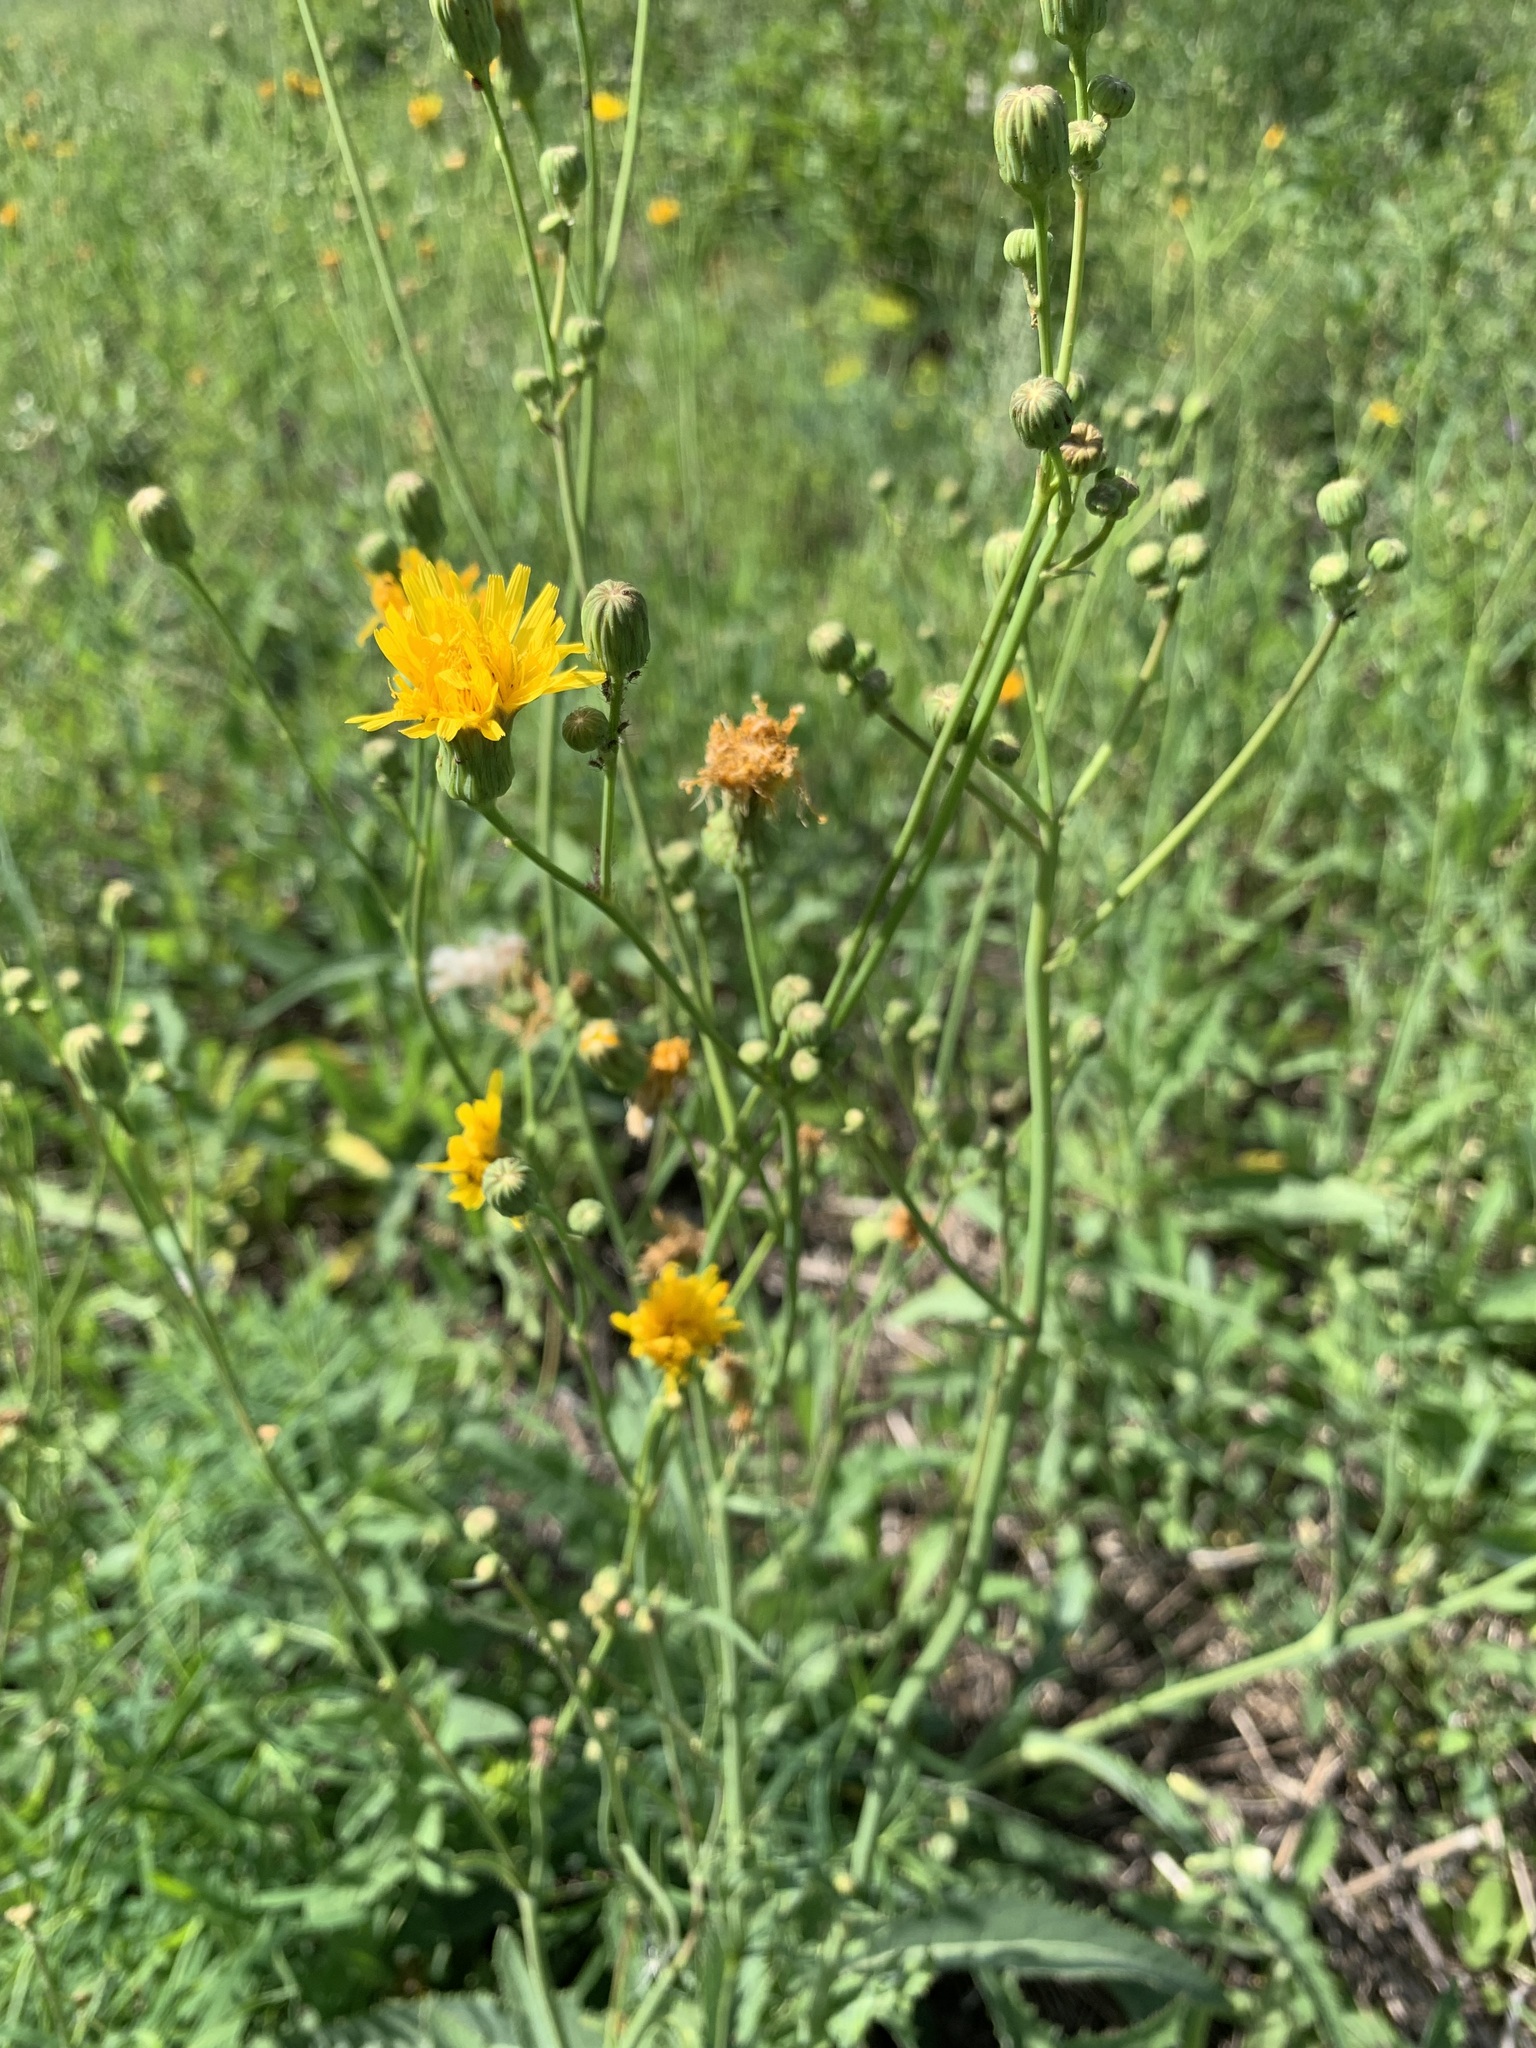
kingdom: Plantae
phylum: Tracheophyta
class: Magnoliopsida
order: Asterales
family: Asteraceae
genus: Sonchus
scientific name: Sonchus arvensis
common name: Perennial sow-thistle
